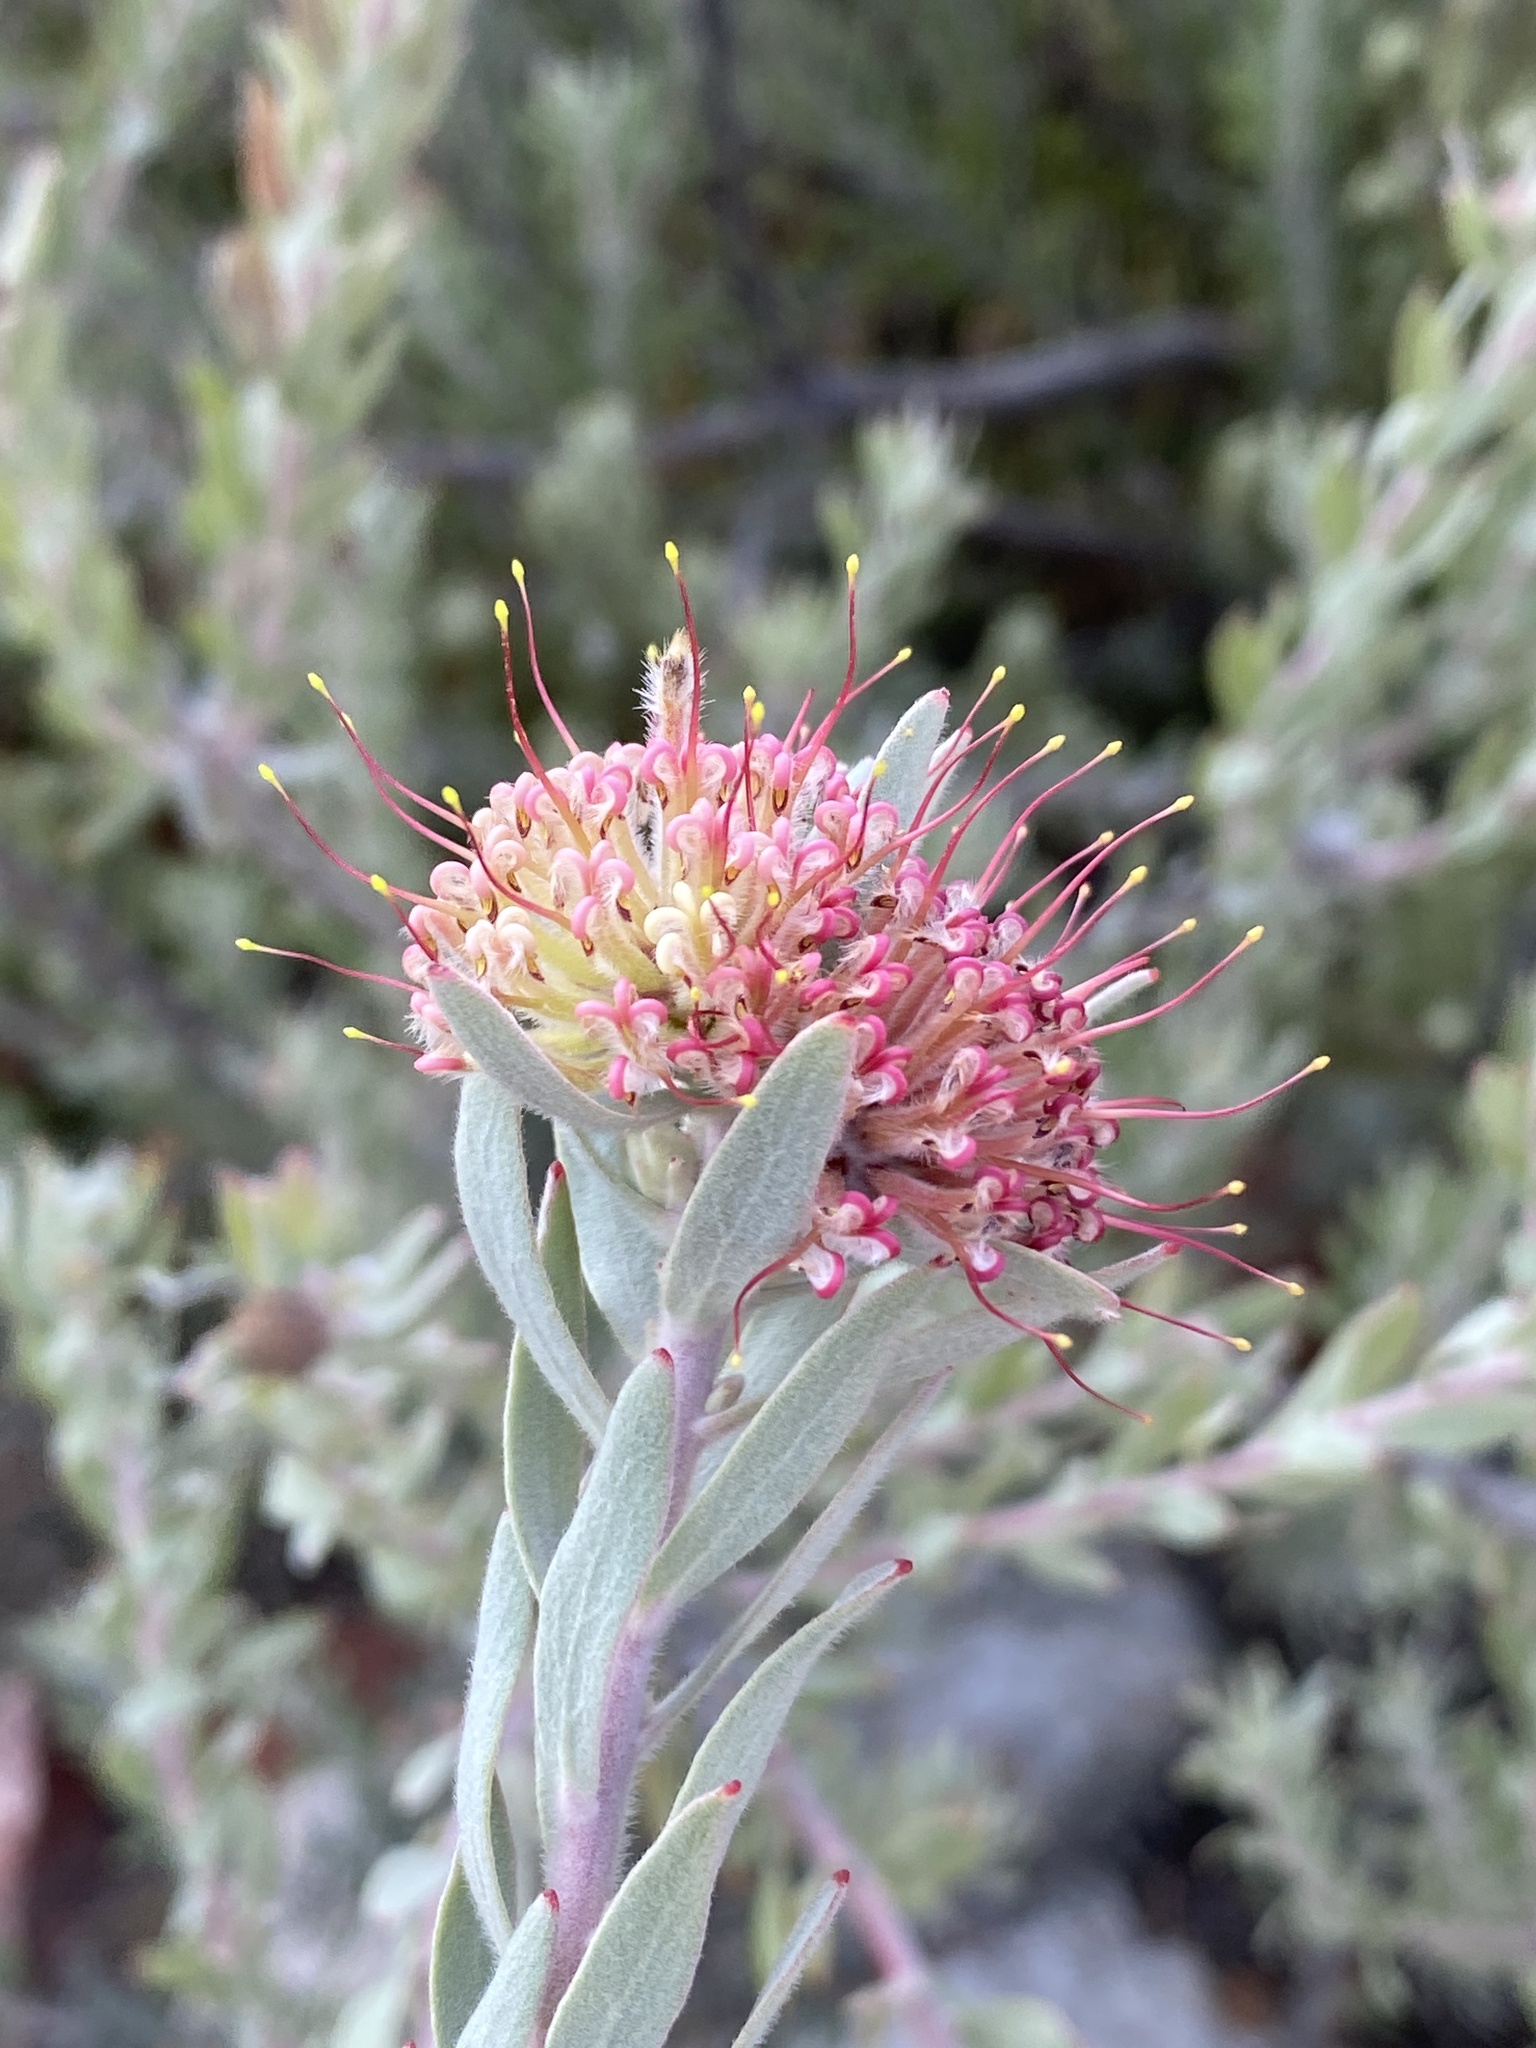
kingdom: Plantae
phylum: Tracheophyta
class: Magnoliopsida
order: Proteales
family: Proteaceae
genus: Leucospermum
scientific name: Leucospermum wittebergense
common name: Swartberg pincushion
